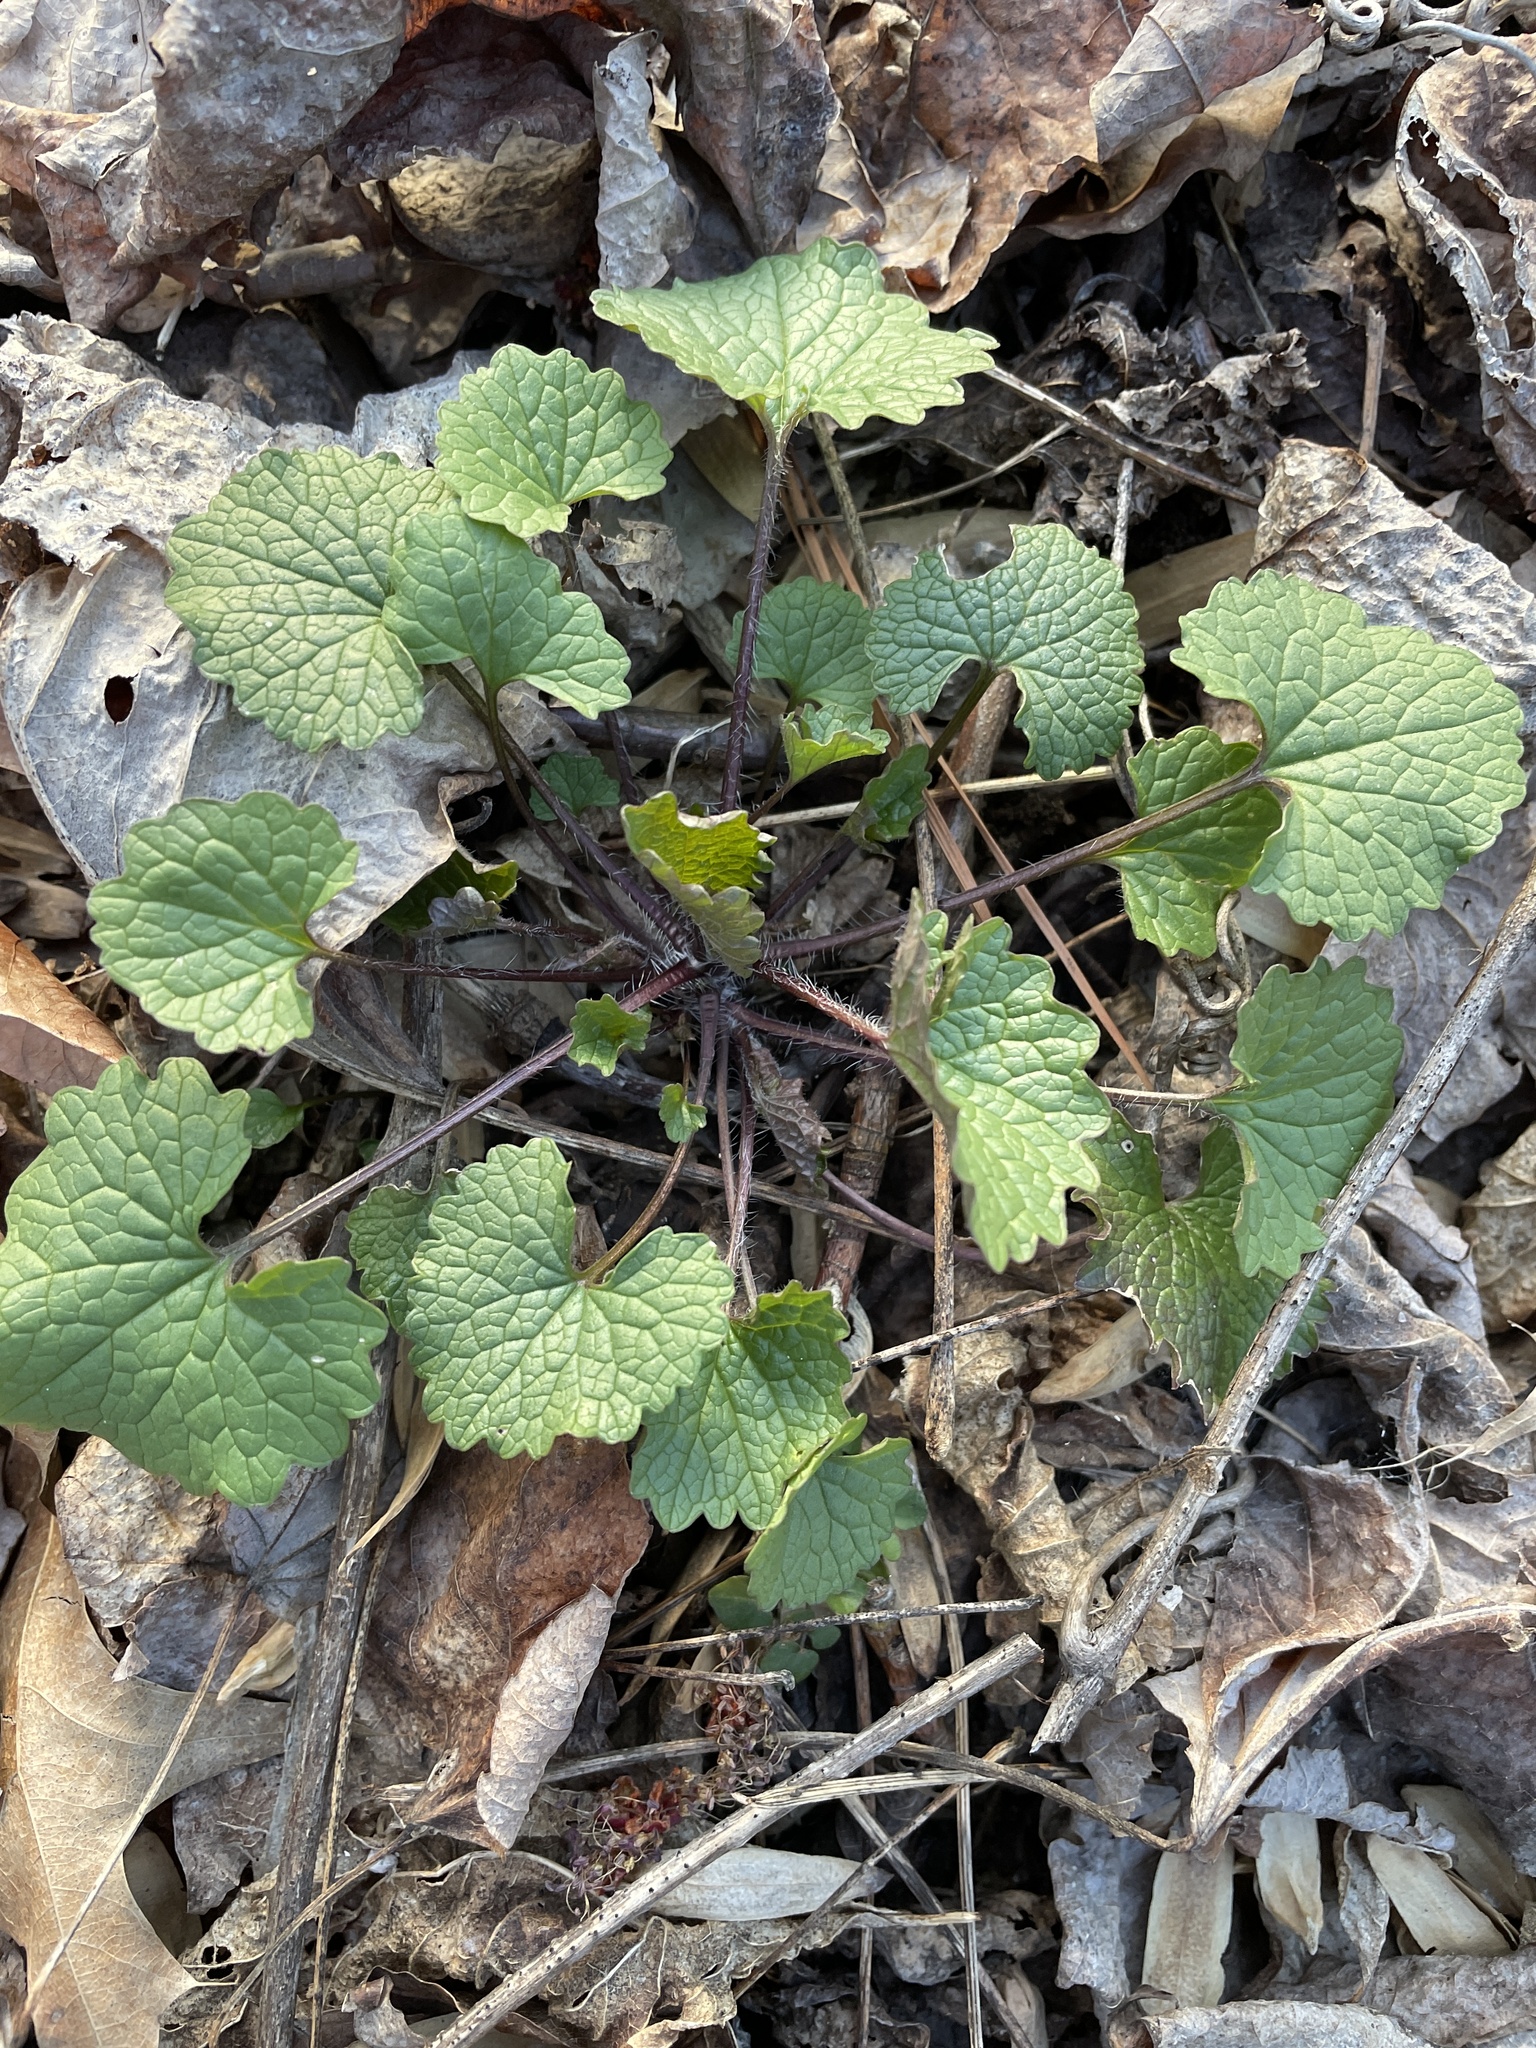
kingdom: Plantae
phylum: Tracheophyta
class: Magnoliopsida
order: Brassicales
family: Brassicaceae
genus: Alliaria
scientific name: Alliaria petiolata
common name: Garlic mustard
